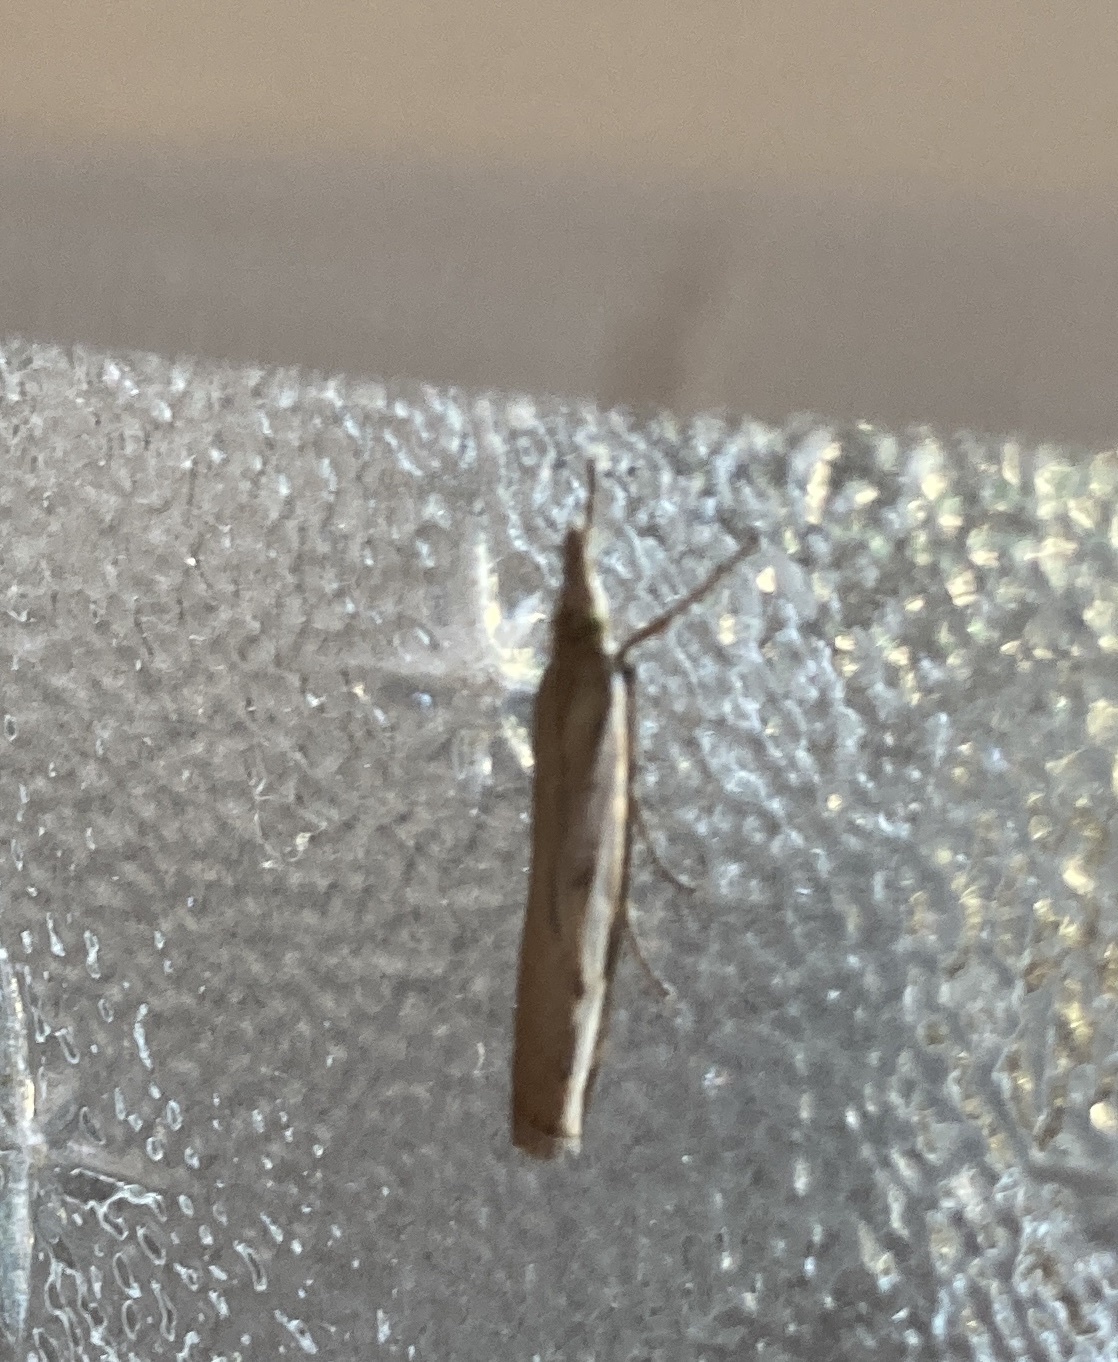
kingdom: Animalia
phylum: Arthropoda
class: Insecta
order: Lepidoptera
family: Crambidae
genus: Orocrambus
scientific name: Orocrambus flexuosellus
